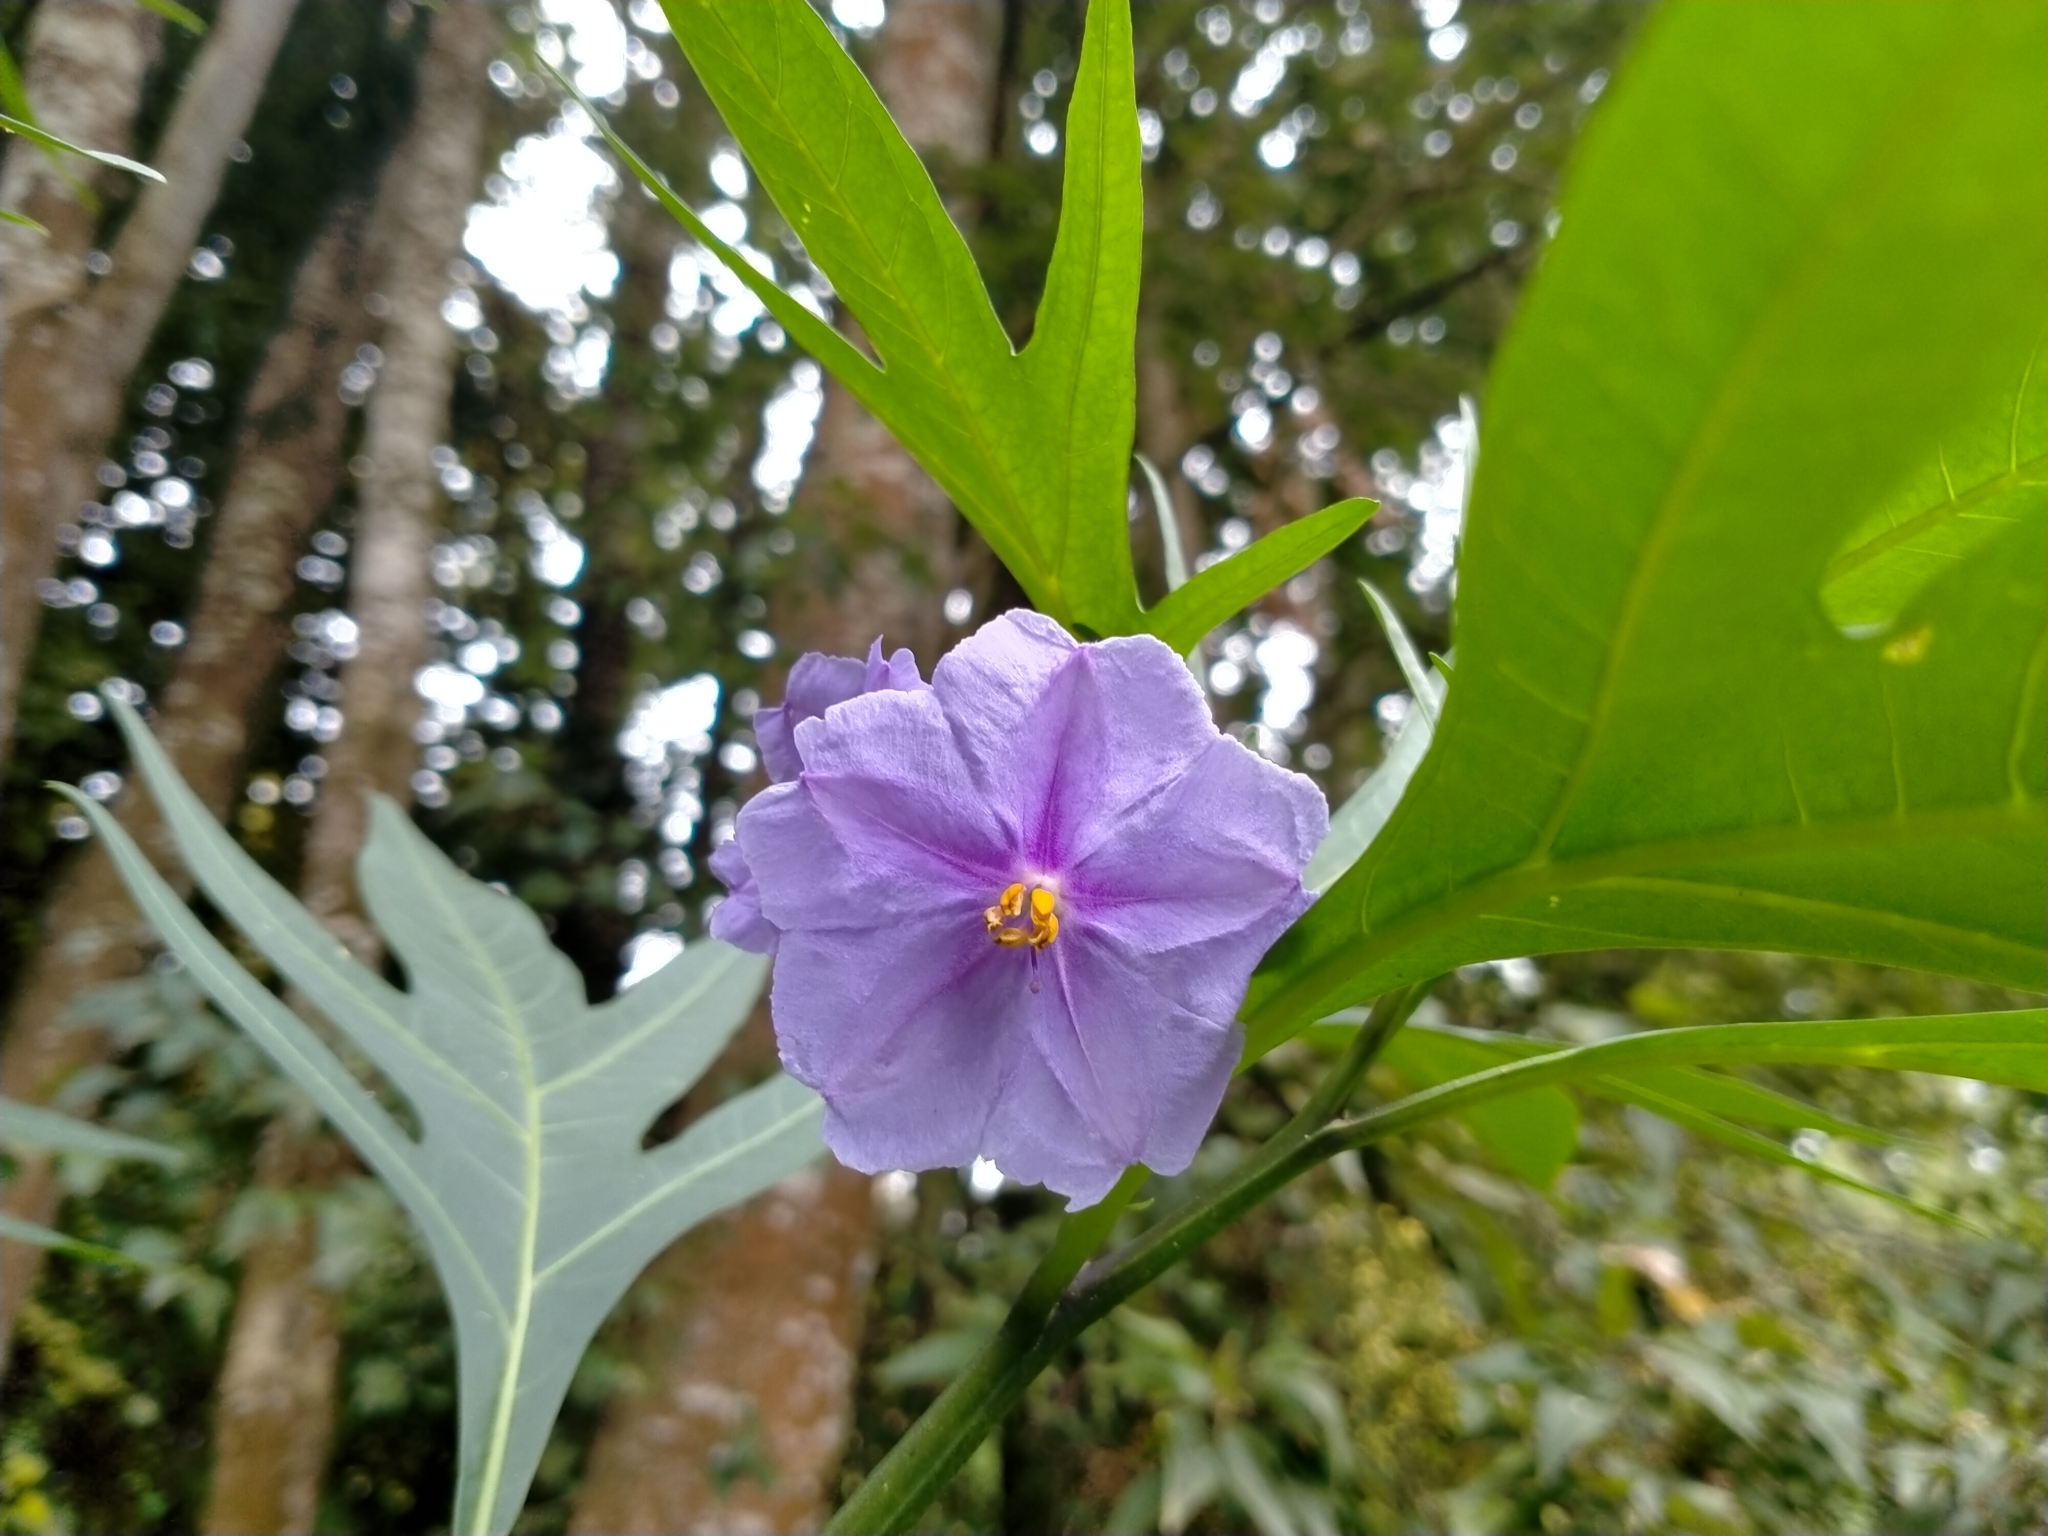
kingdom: Plantae
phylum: Tracheophyta
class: Magnoliopsida
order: Solanales
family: Solanaceae
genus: Solanum
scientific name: Solanum laciniatum
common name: Kangaroo-apple
